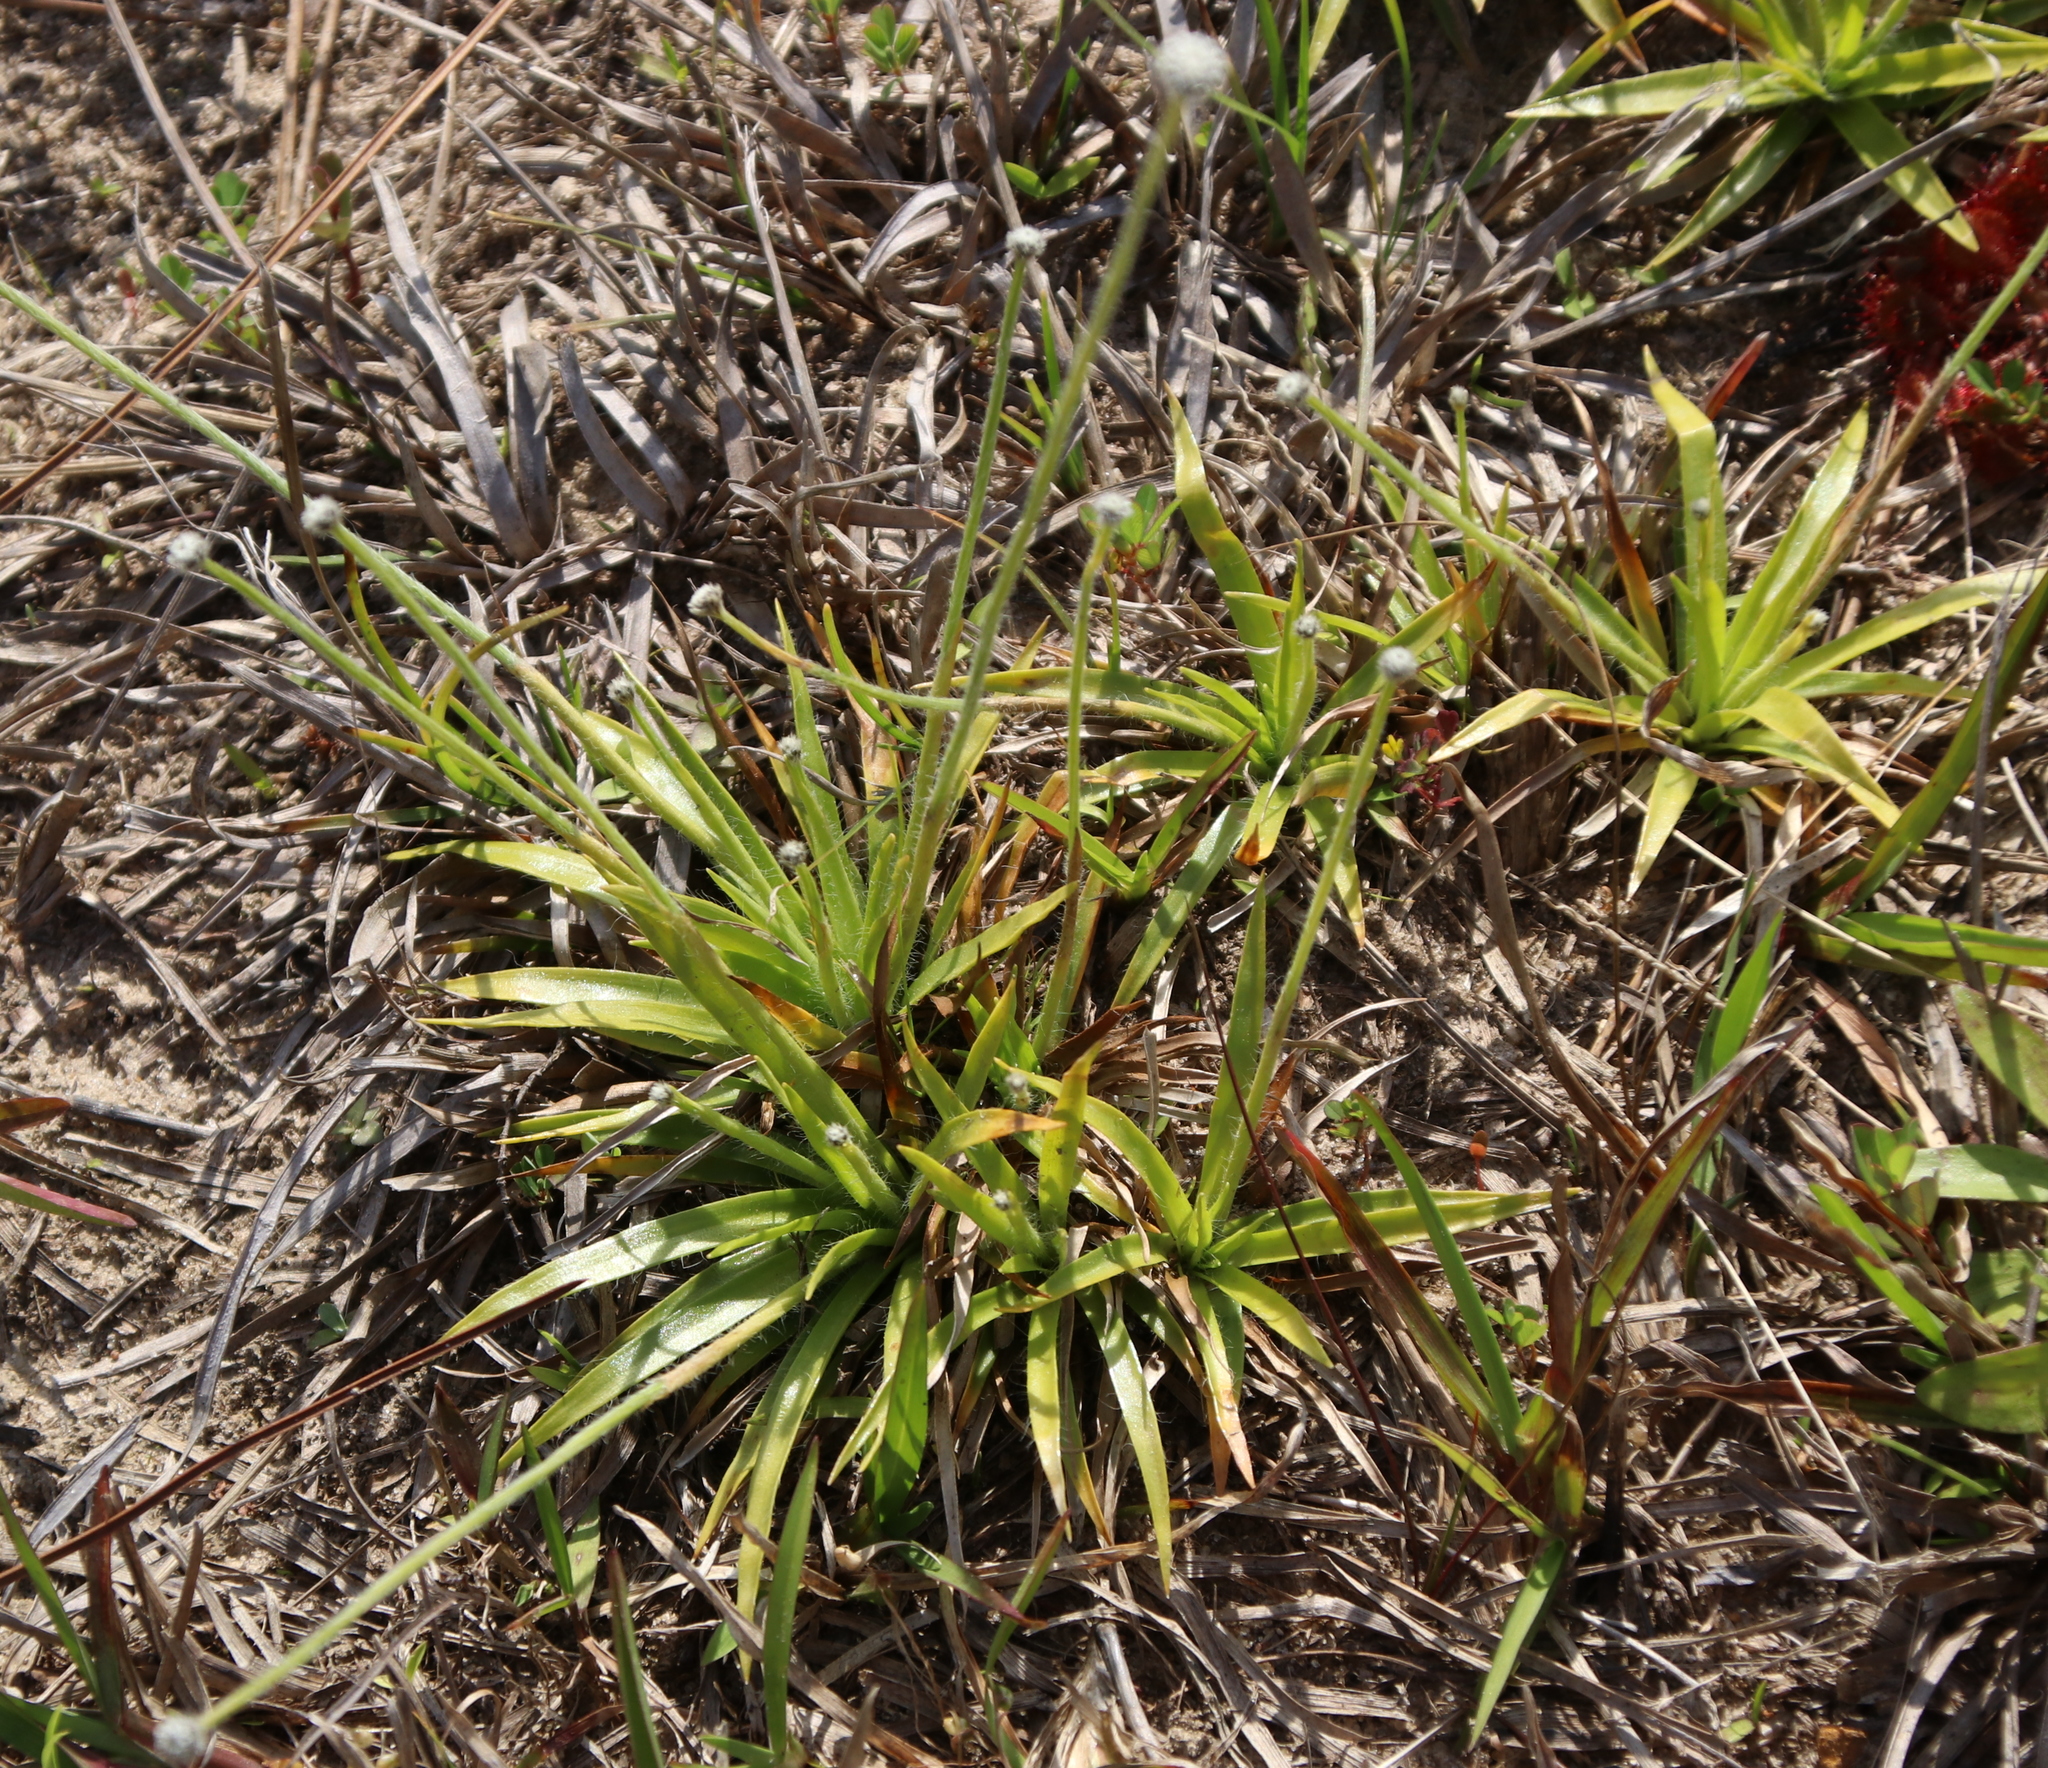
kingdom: Plantae
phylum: Tracheophyta
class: Liliopsida
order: Poales
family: Eriocaulaceae
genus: Paepalanthus
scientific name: Paepalanthus anceps
